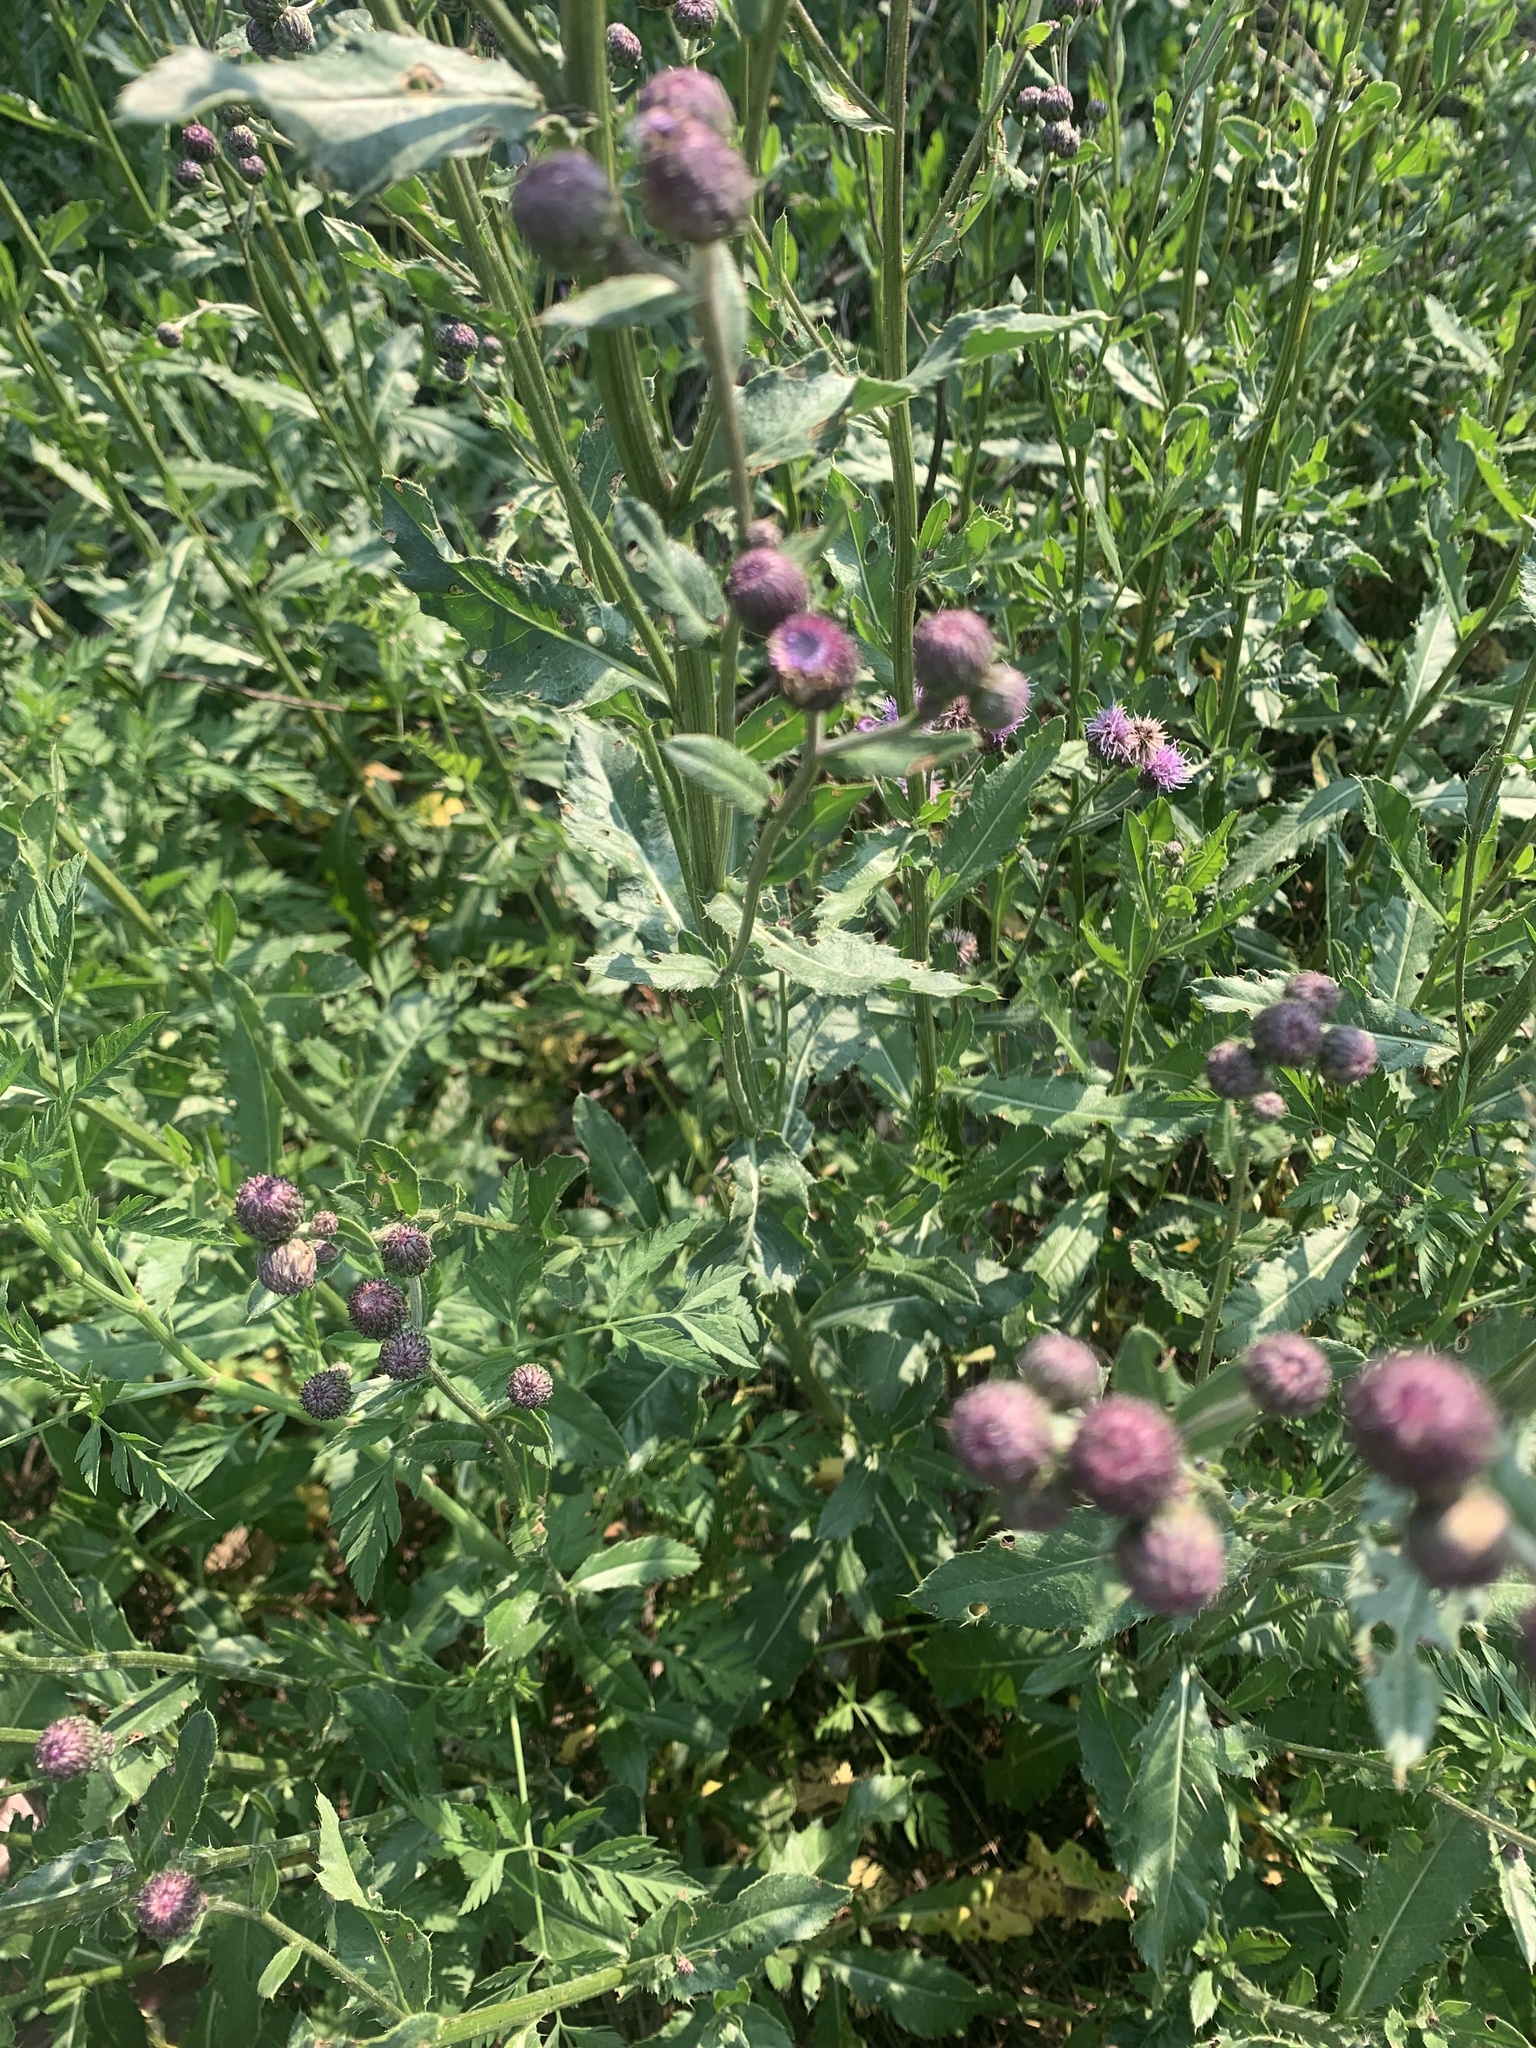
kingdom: Plantae
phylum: Tracheophyta
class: Magnoliopsida
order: Asterales
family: Asteraceae
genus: Cirsium
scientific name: Cirsium arvense
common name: Creeping thistle
